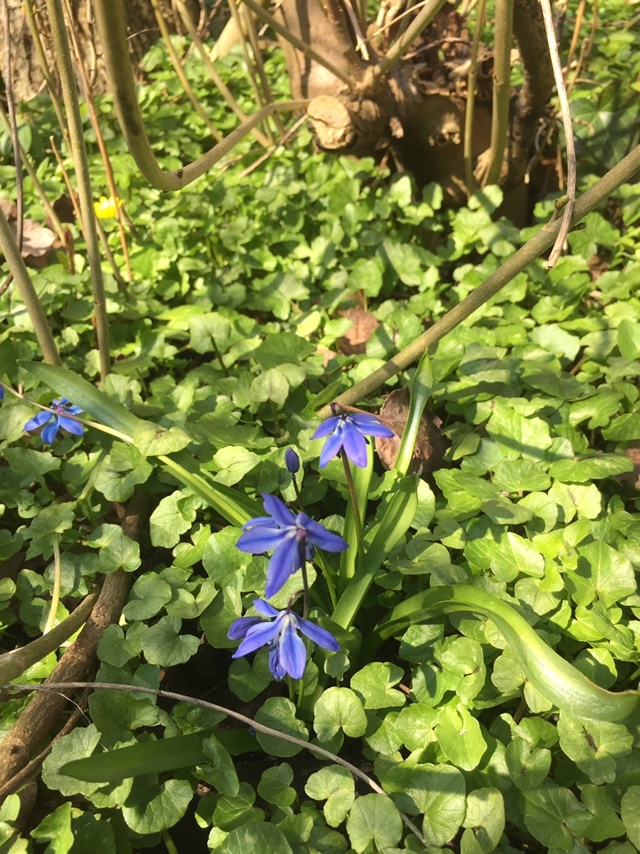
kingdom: Plantae
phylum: Tracheophyta
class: Liliopsida
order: Asparagales
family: Asparagaceae
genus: Scilla
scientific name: Scilla siberica
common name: Siberian squill
